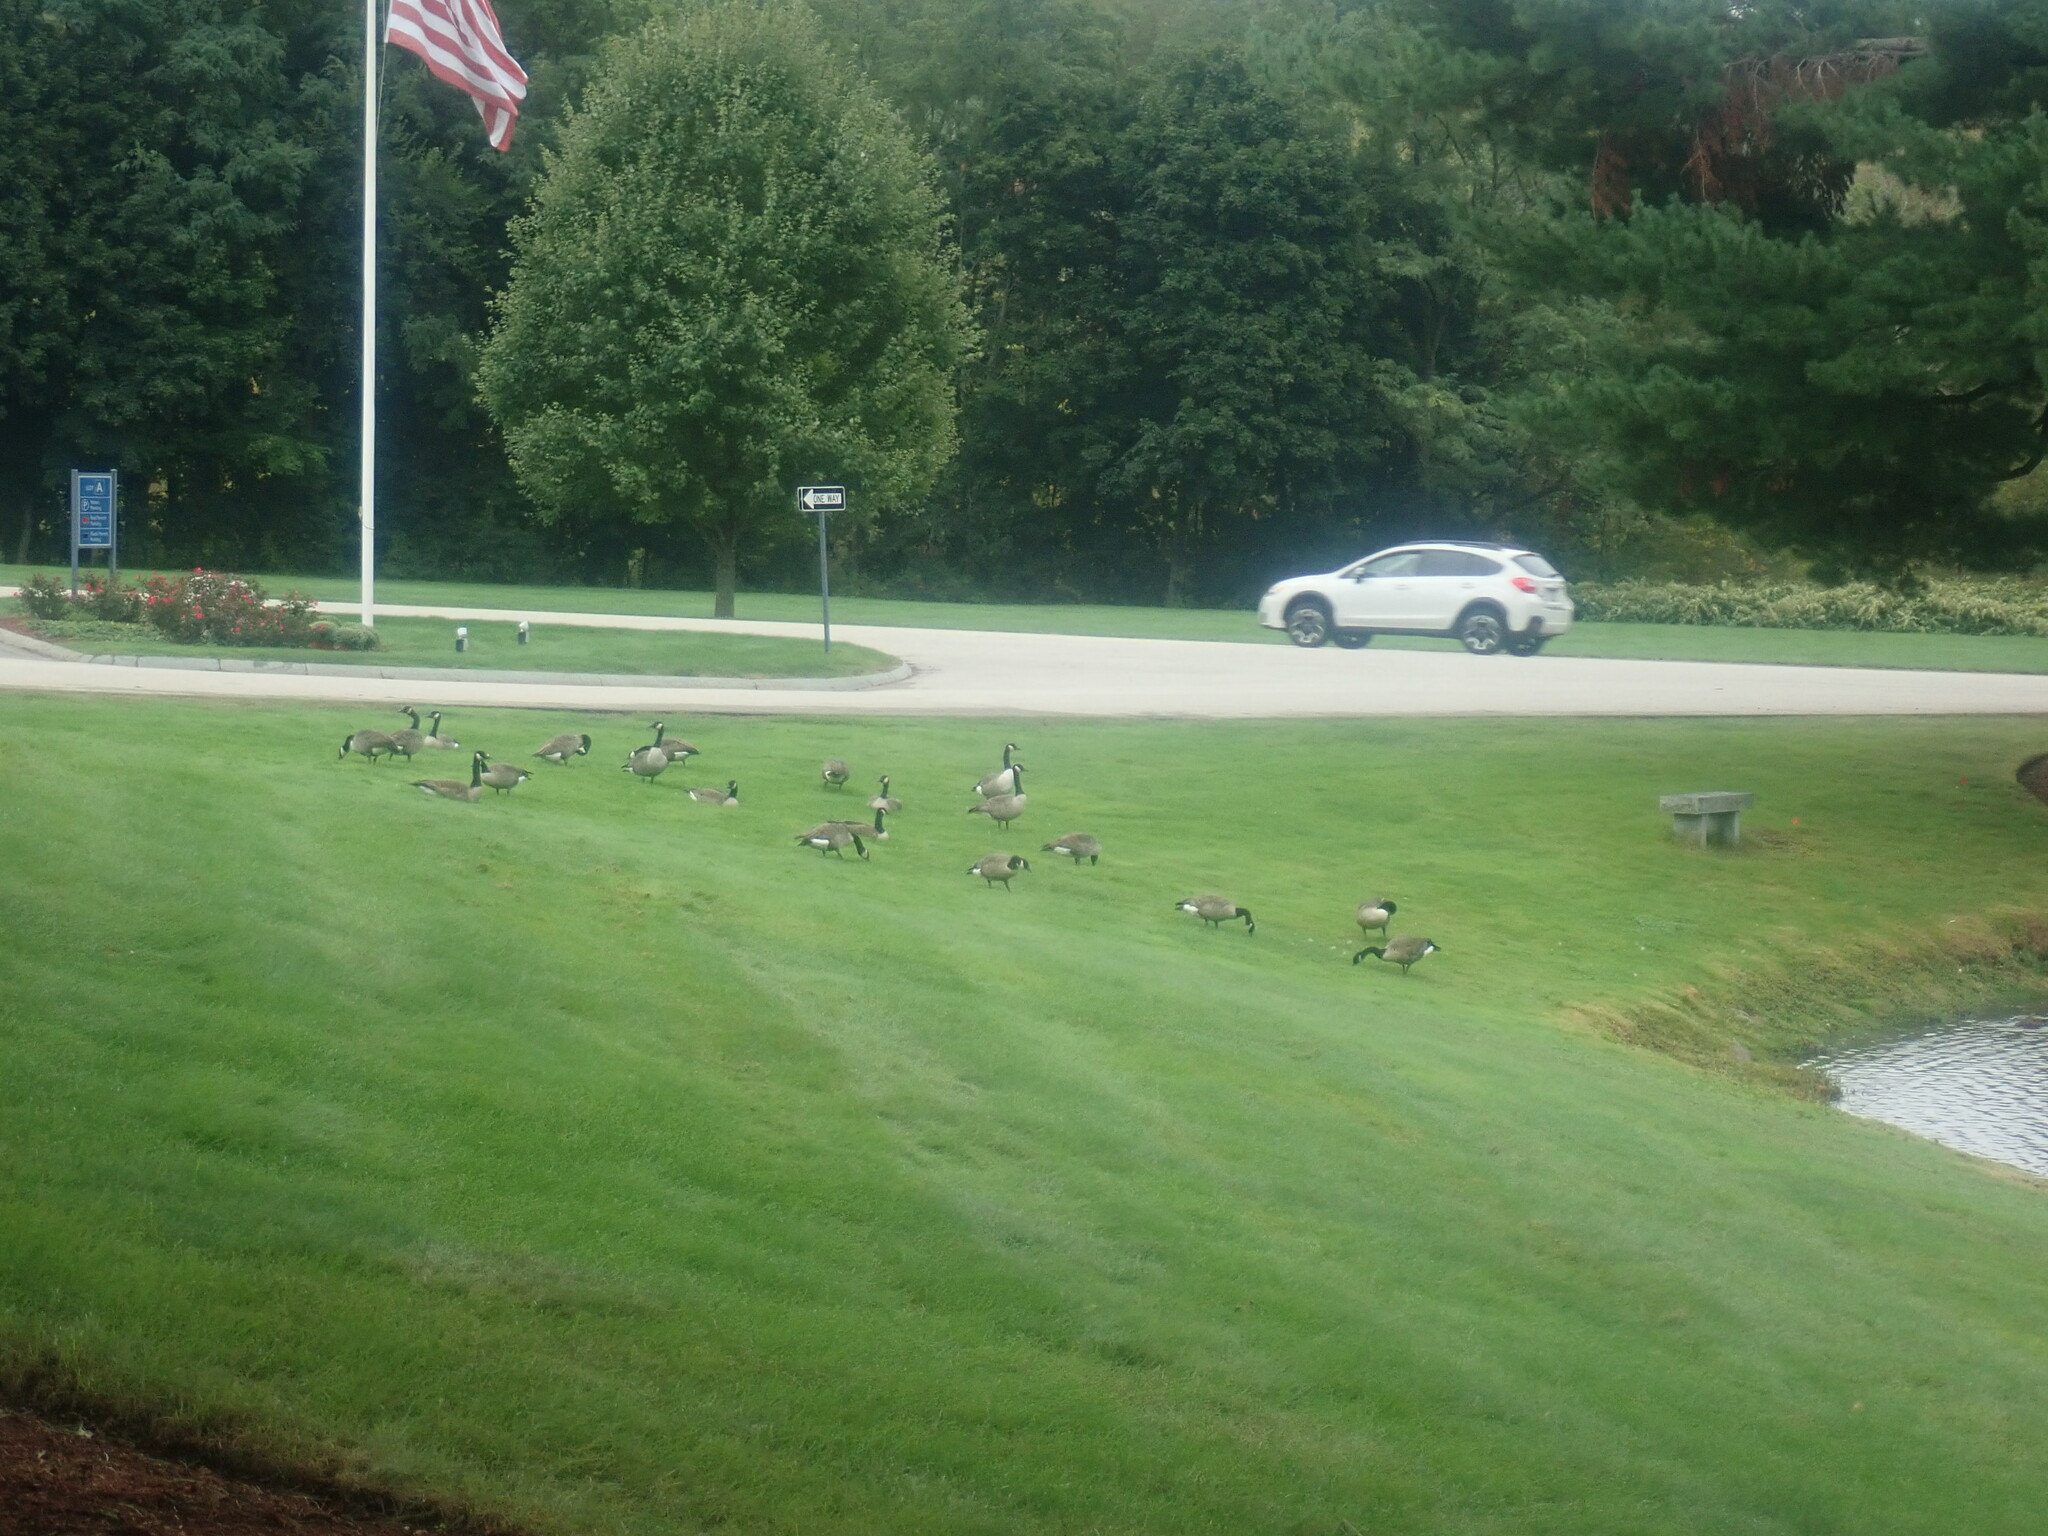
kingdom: Animalia
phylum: Chordata
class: Aves
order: Anseriformes
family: Anatidae
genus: Branta
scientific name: Branta canadensis
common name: Canada goose
